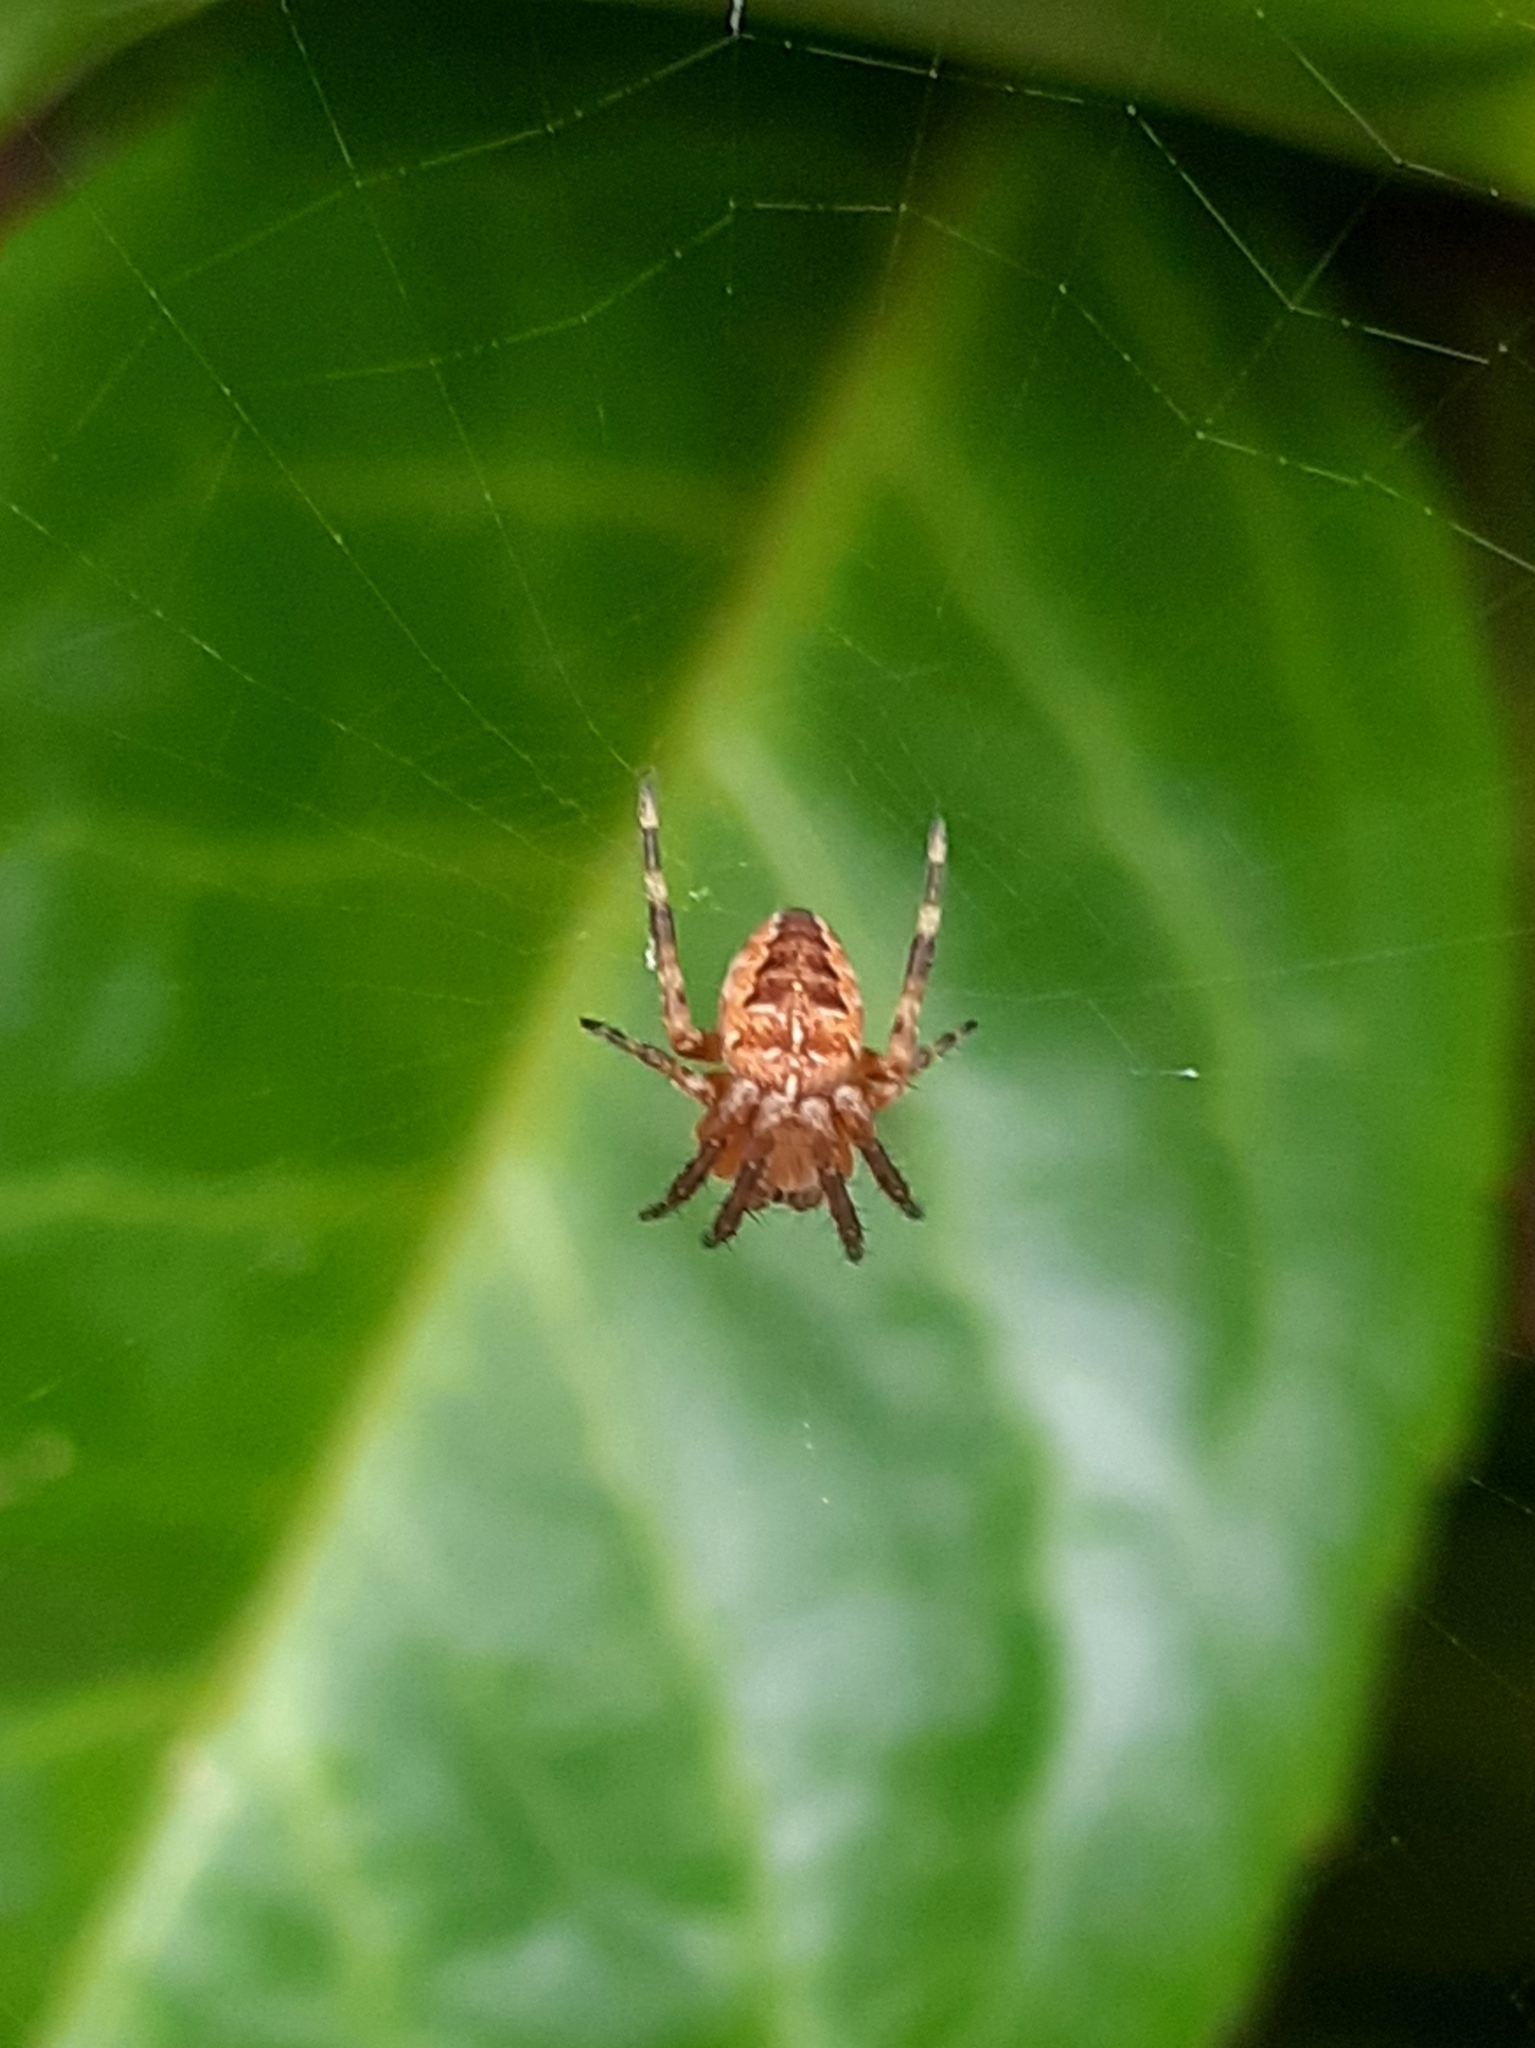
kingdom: Animalia
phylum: Arthropoda
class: Arachnida
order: Araneae
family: Araneidae
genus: Araneus
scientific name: Araneus diadematus
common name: Cross orbweaver
